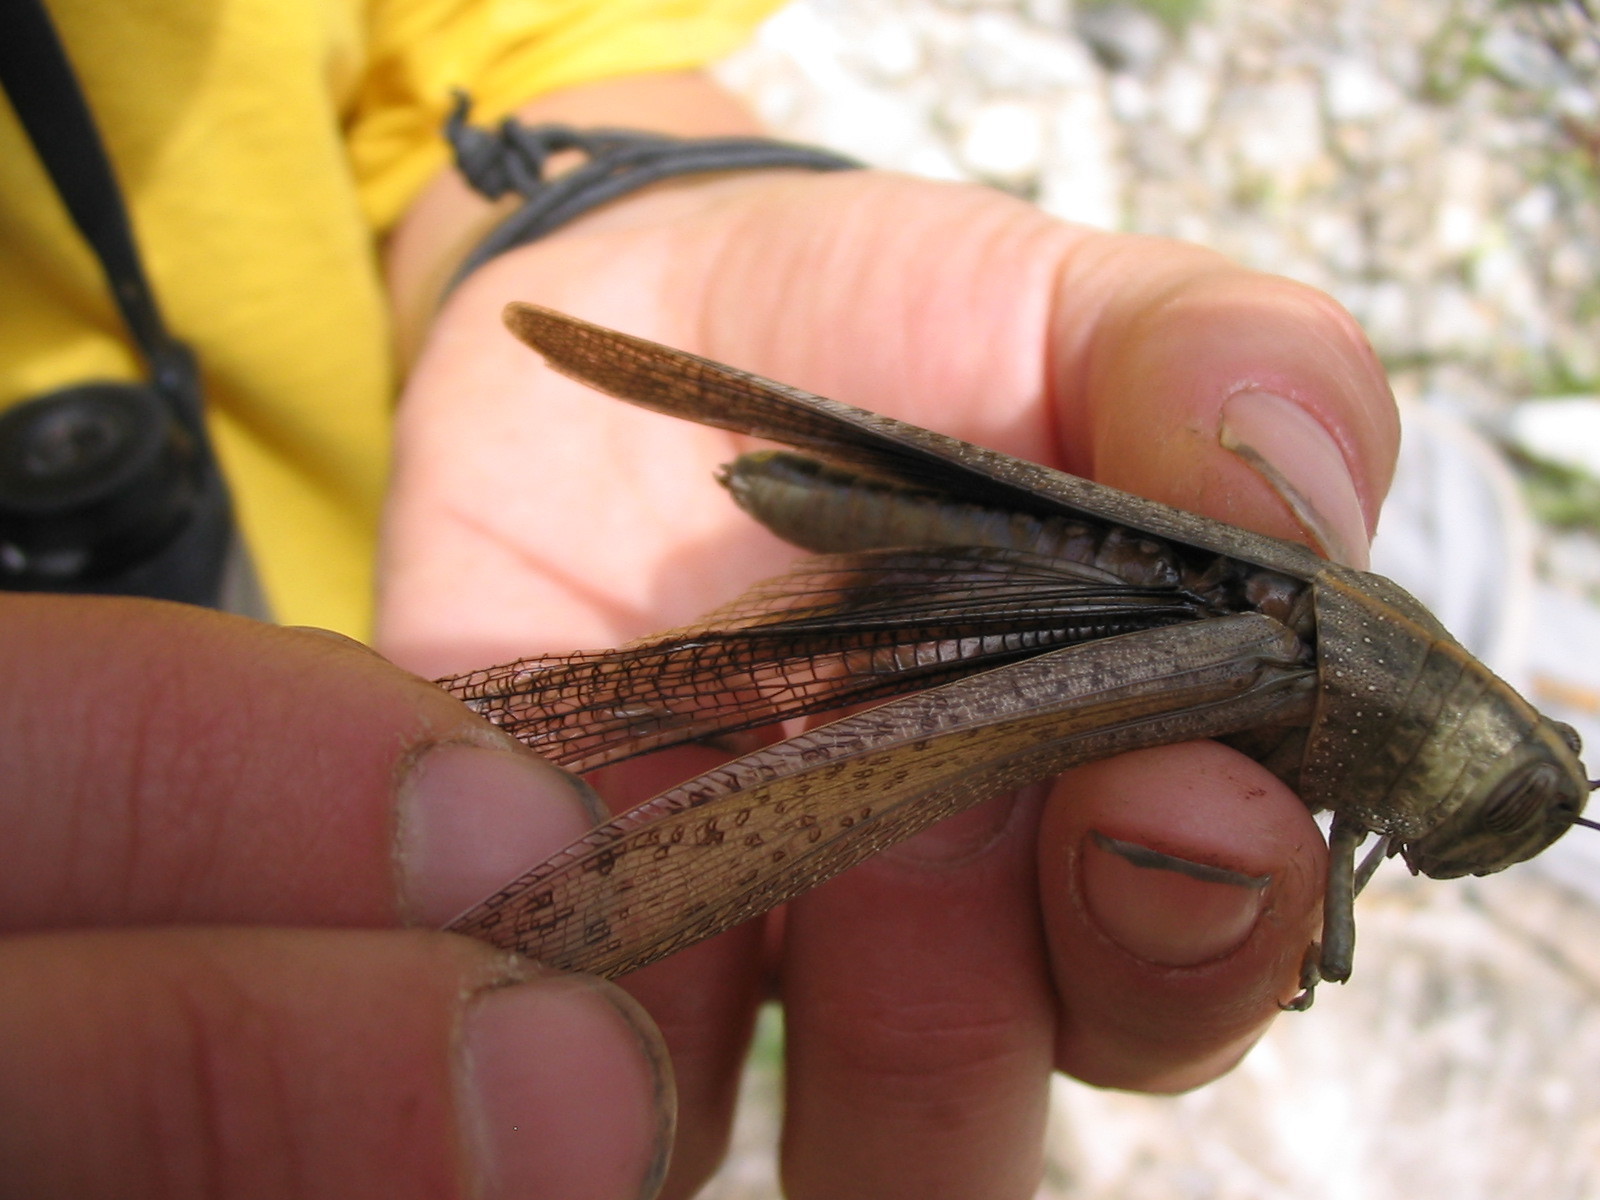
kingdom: Animalia
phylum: Arthropoda
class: Insecta
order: Orthoptera
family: Acrididae
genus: Anacridium
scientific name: Anacridium aegyptium
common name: Egyptian grasshopper
